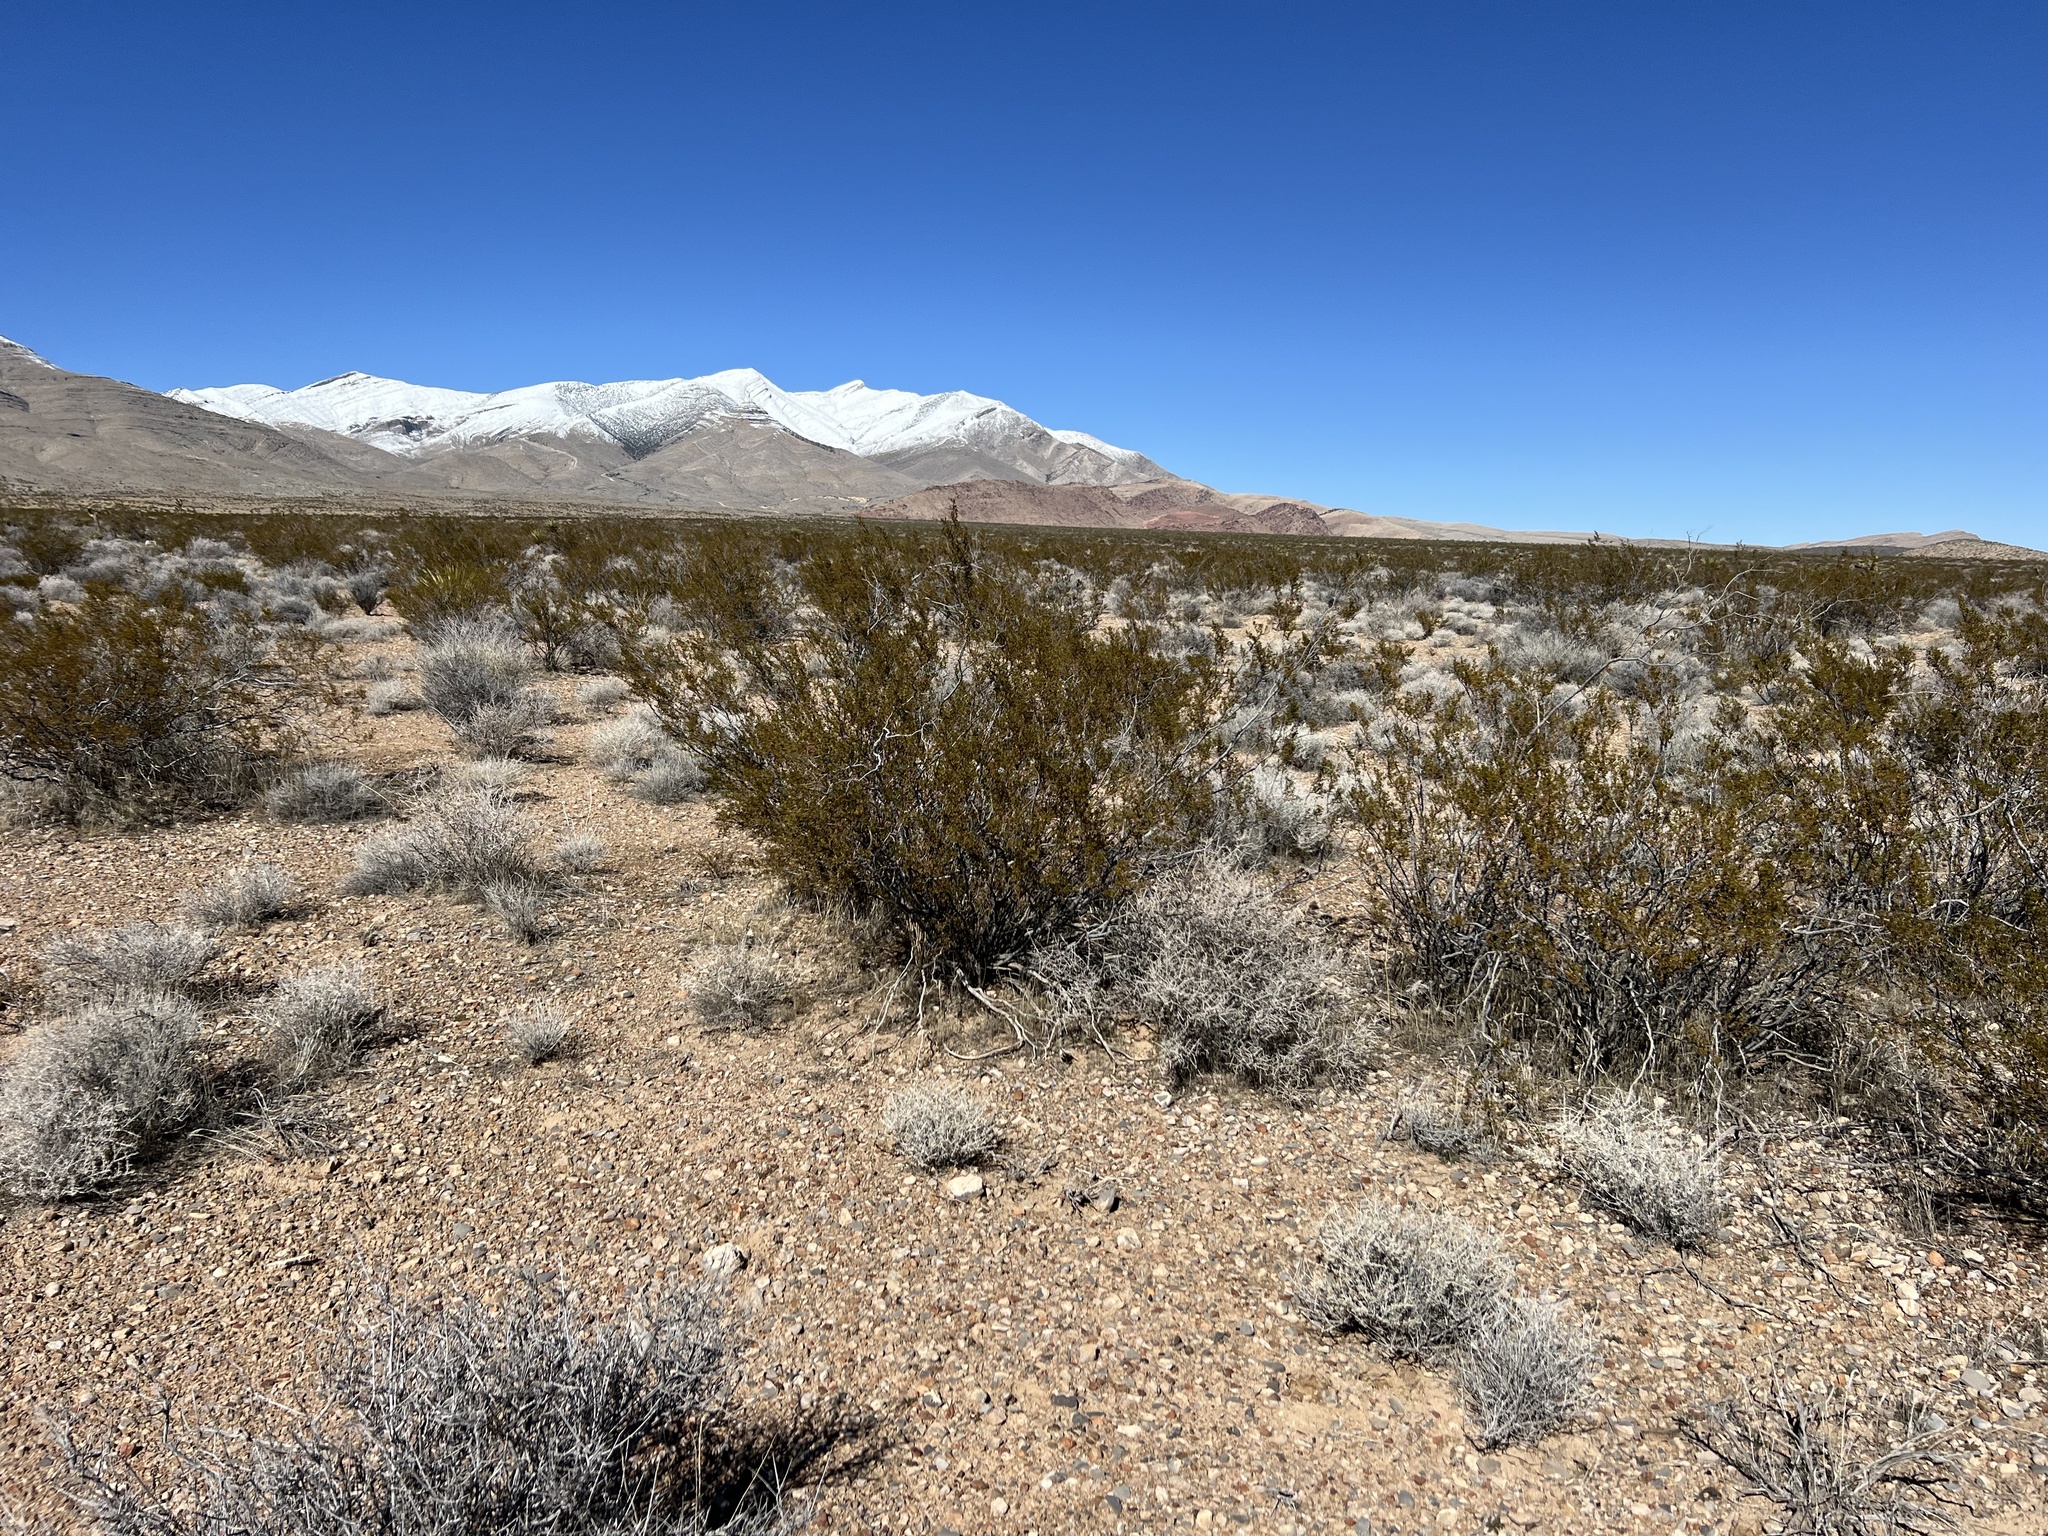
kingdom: Plantae
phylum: Tracheophyta
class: Magnoliopsida
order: Zygophyllales
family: Zygophyllaceae
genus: Larrea
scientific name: Larrea tridentata
